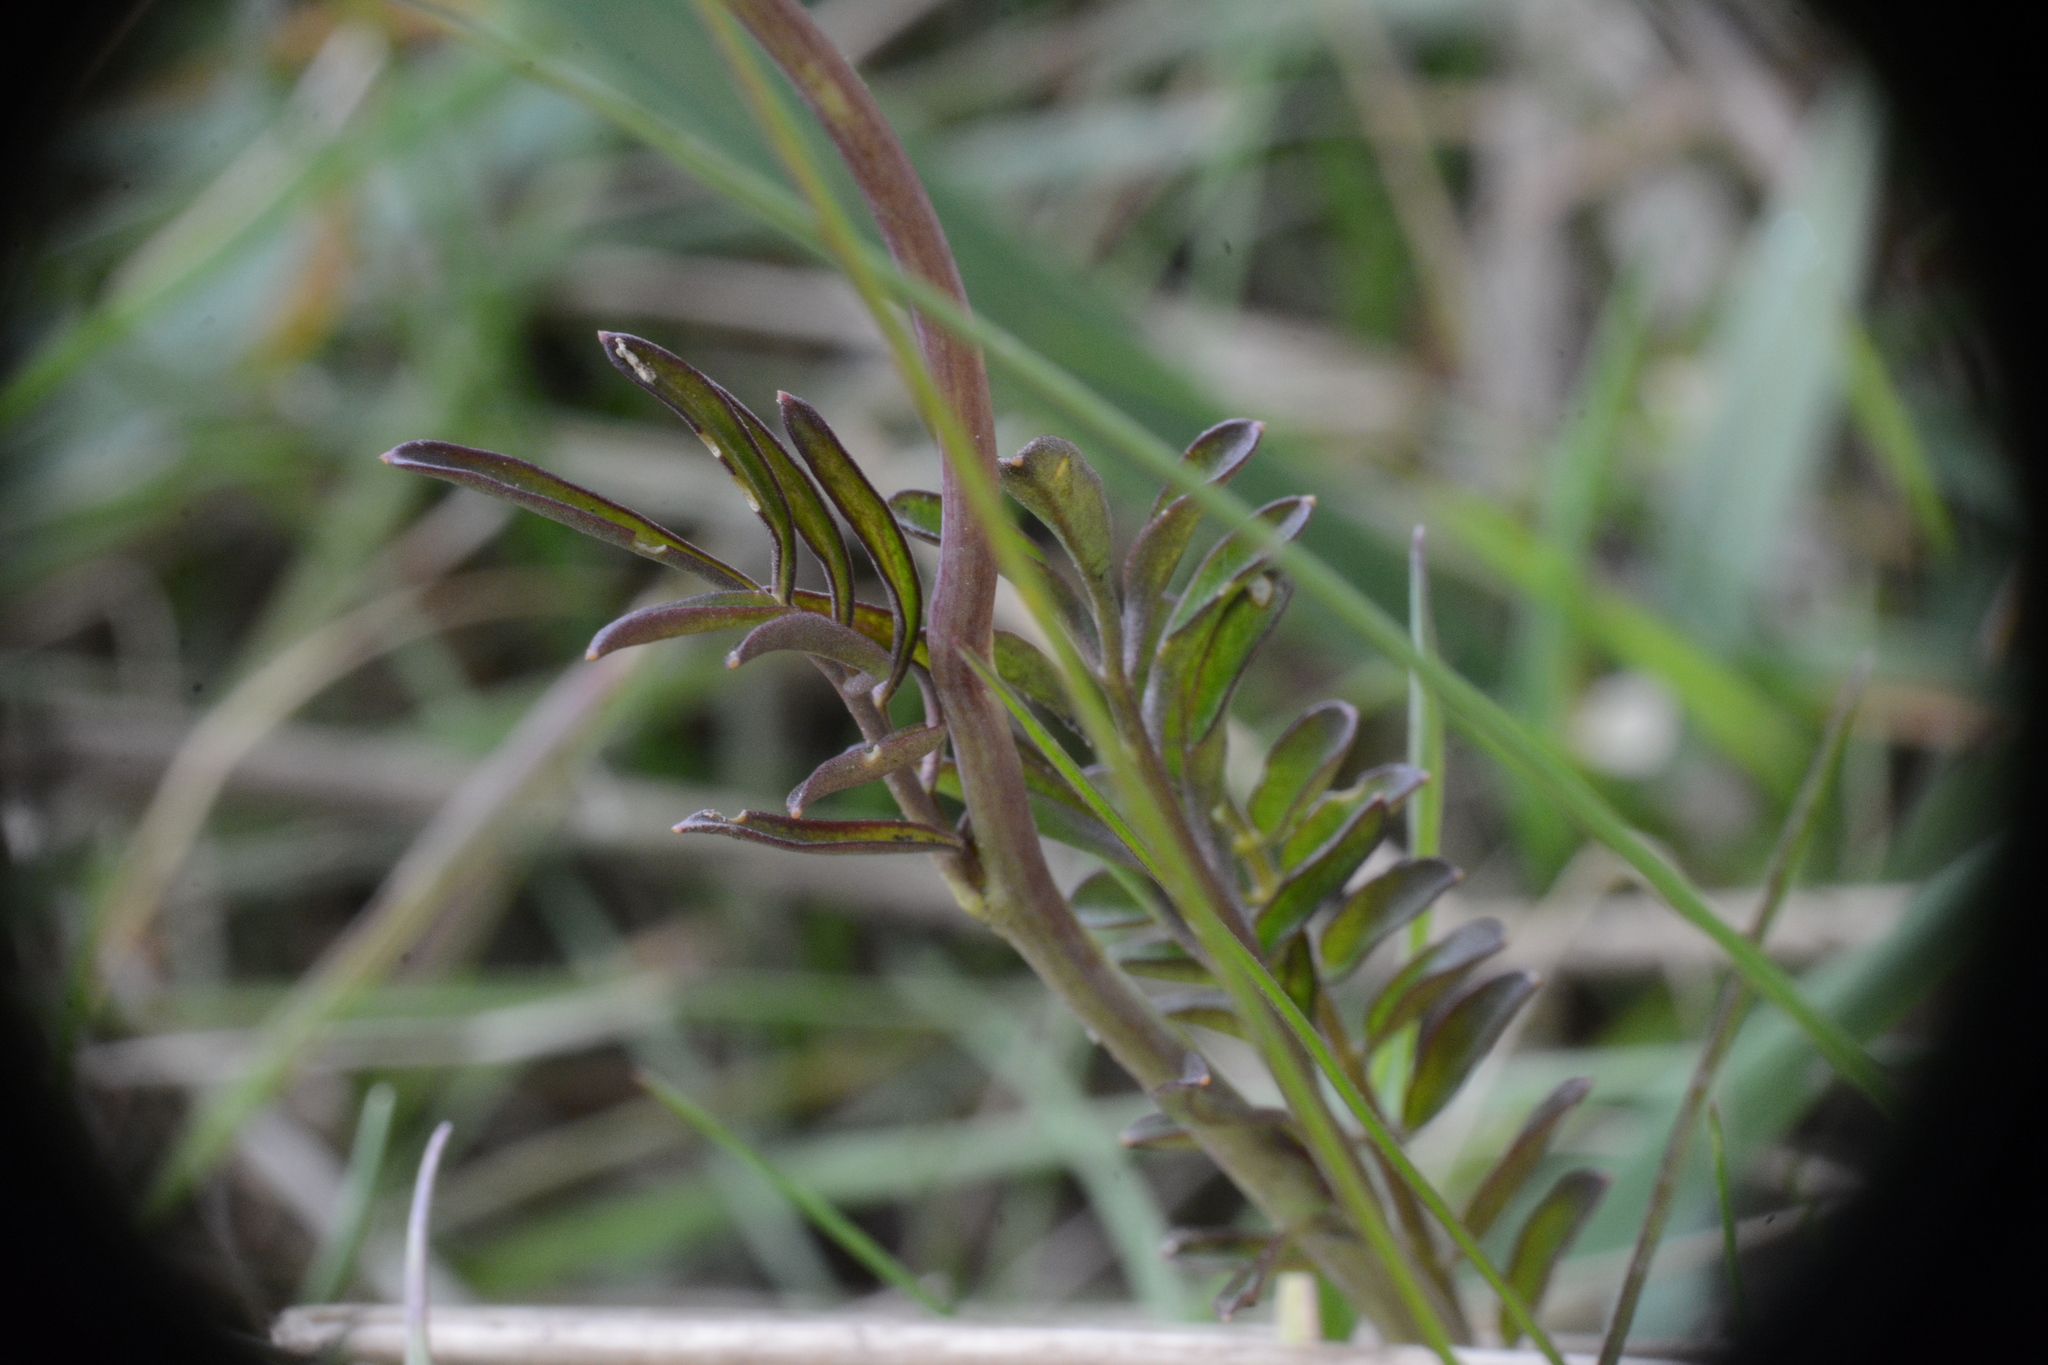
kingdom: Plantae
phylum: Tracheophyta
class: Magnoliopsida
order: Brassicales
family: Brassicaceae
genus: Cardamine
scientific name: Cardamine pratensis
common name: Cuckoo flower
